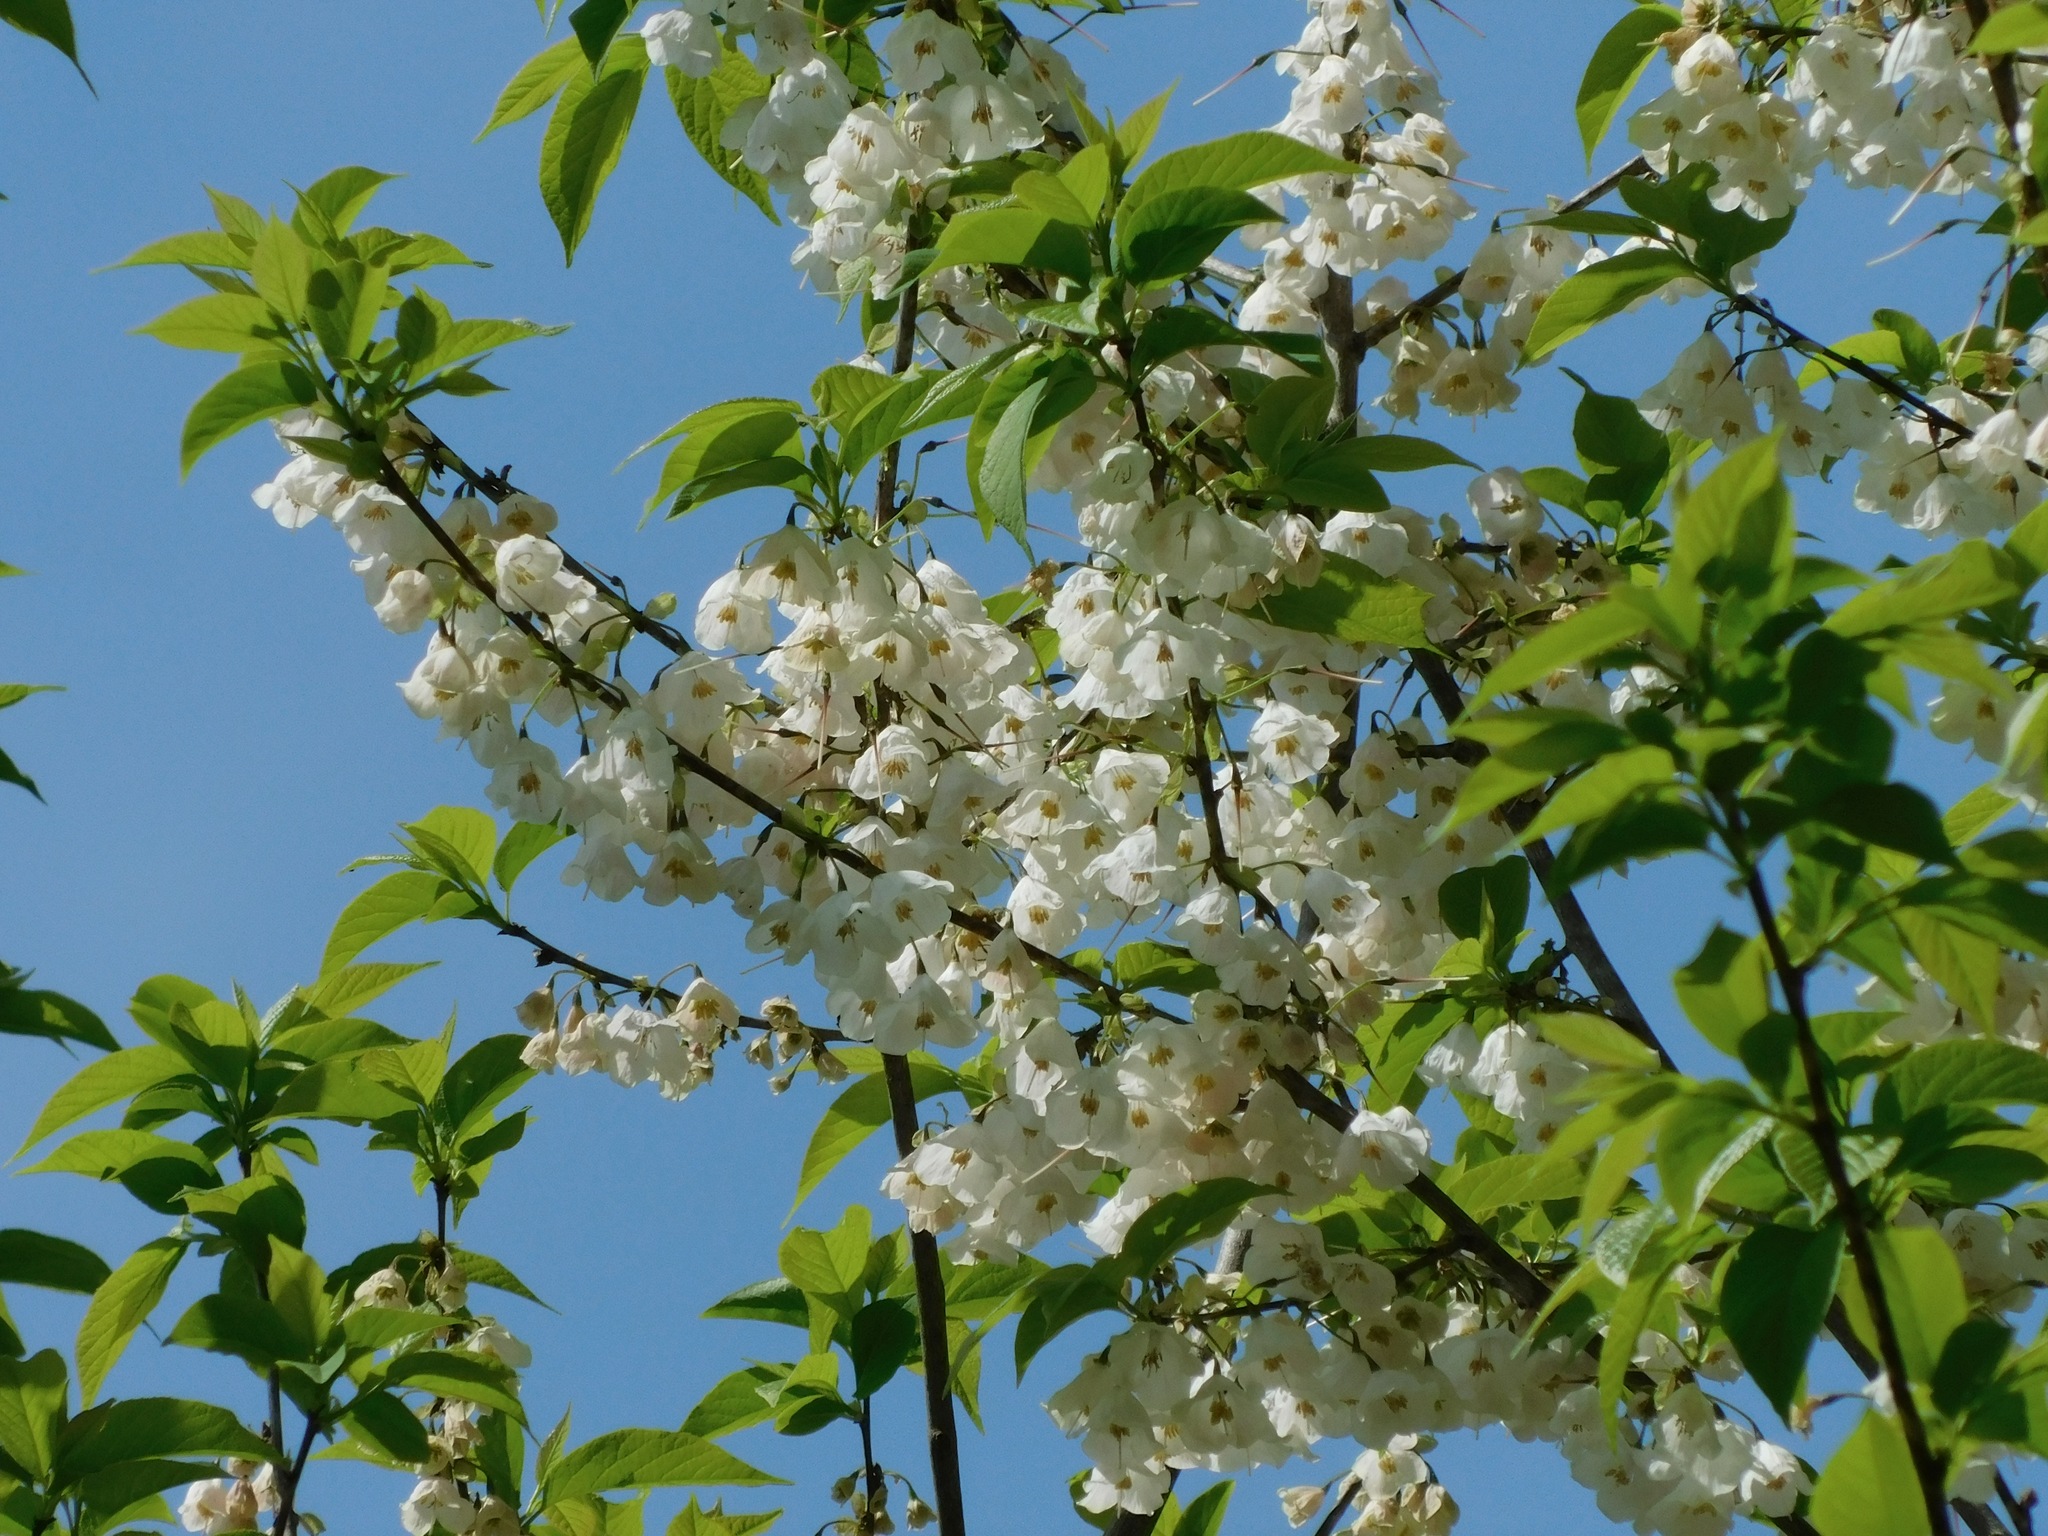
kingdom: Plantae
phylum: Tracheophyta
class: Magnoliopsida
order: Ericales
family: Styracaceae
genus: Halesia
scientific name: Halesia carolina
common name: Carolina silverbell
